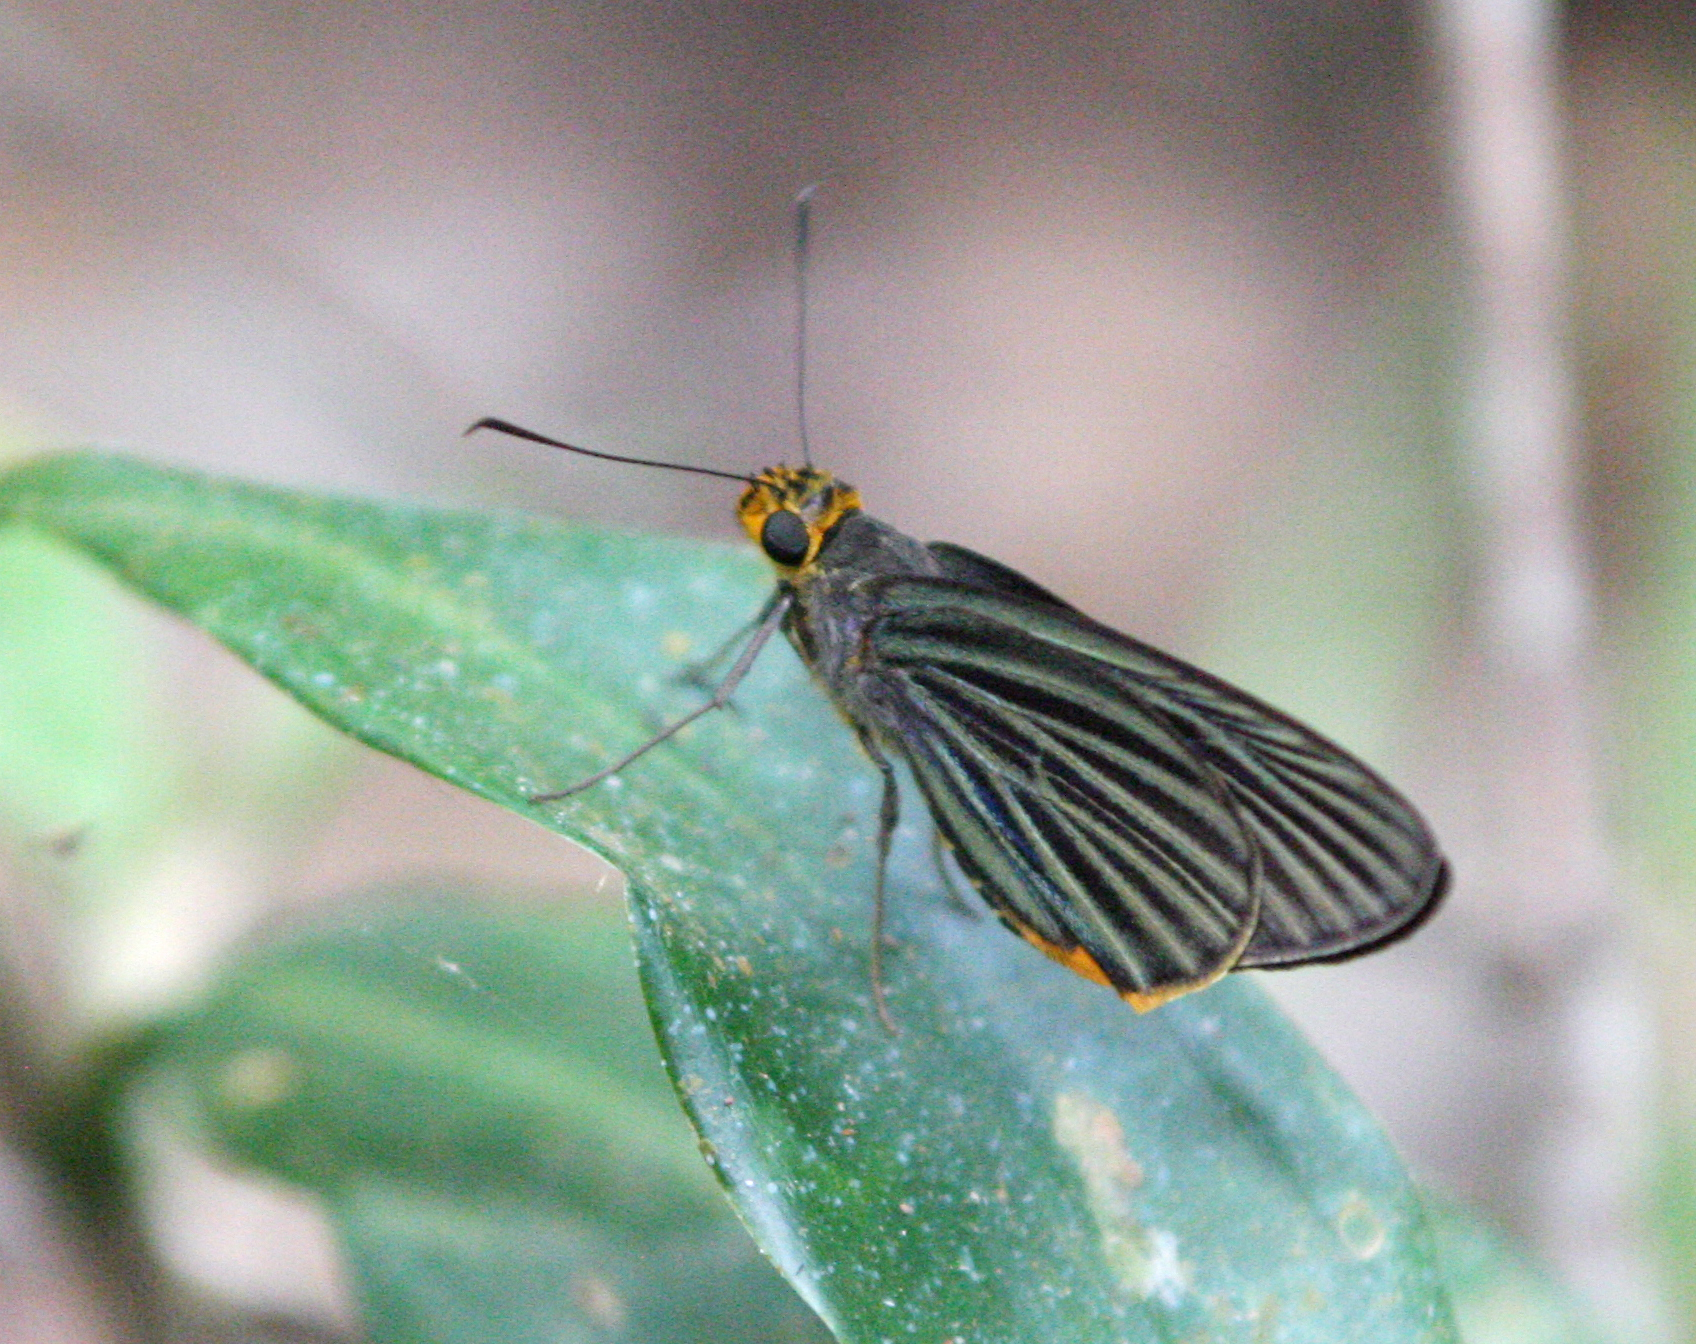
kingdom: Animalia
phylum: Arthropoda
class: Insecta
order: Lepidoptera
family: Hesperiidae
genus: Pirdana
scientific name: Pirdana hyela
